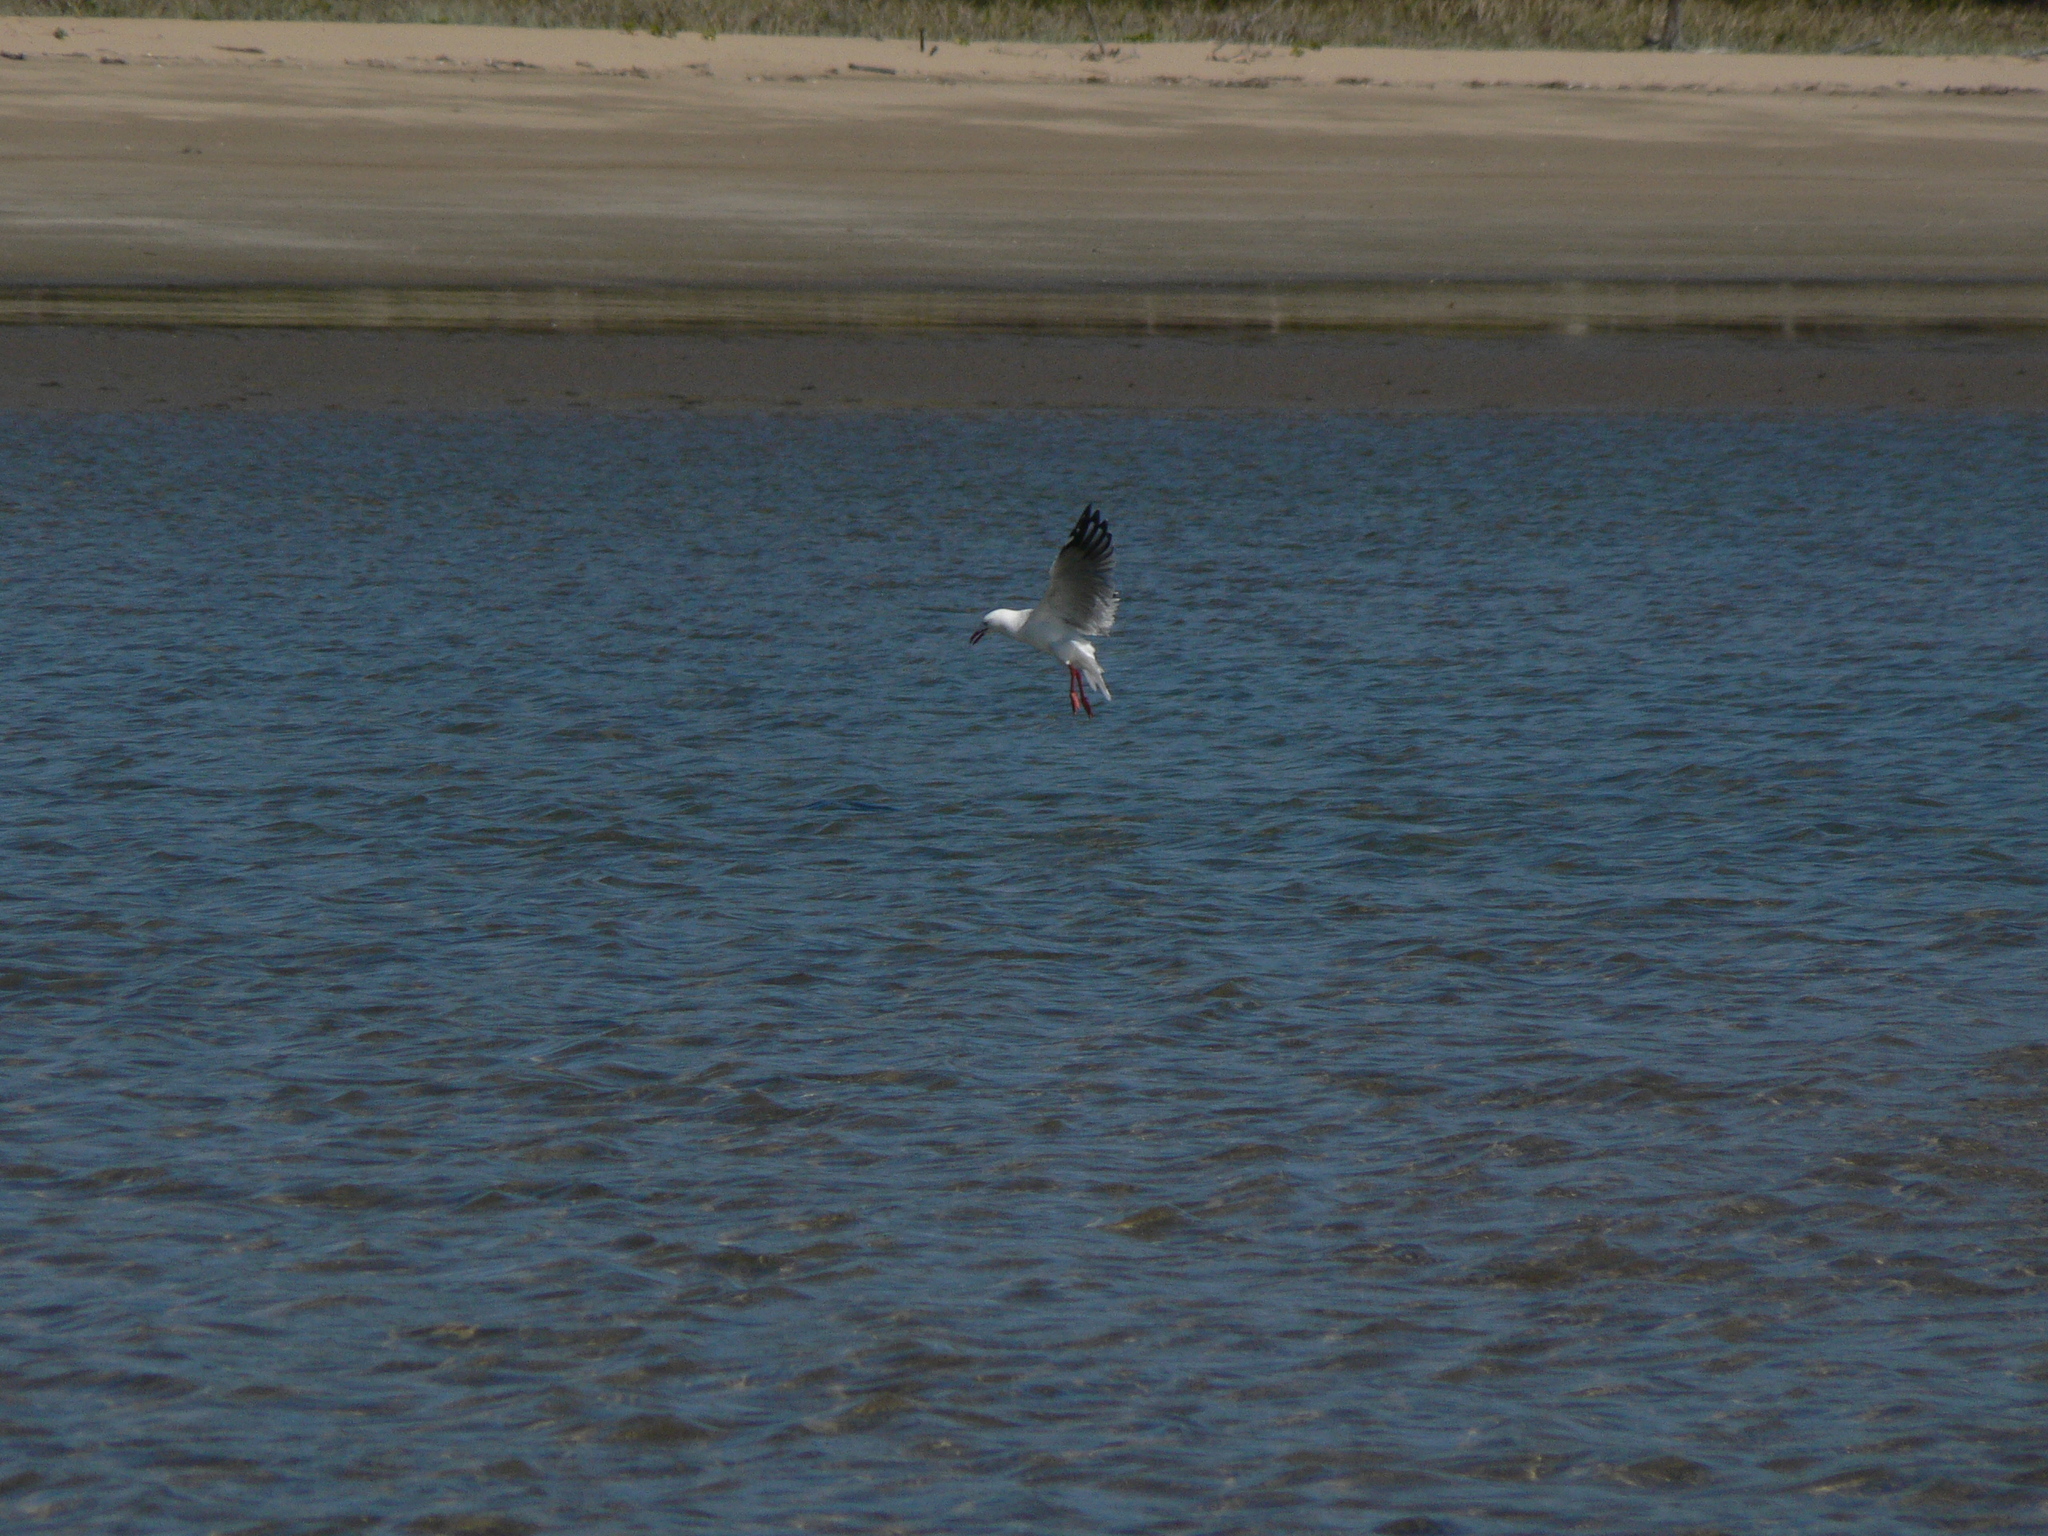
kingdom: Animalia
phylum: Chordata
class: Aves
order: Charadriiformes
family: Laridae
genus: Chroicocephalus
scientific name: Chroicocephalus novaehollandiae
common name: Silver gull
